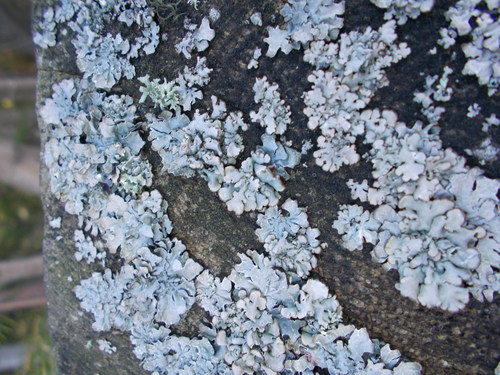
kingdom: Fungi
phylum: Ascomycota
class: Lecanoromycetes
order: Lecanorales
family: Parmeliaceae
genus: Parmelia
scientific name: Parmelia
